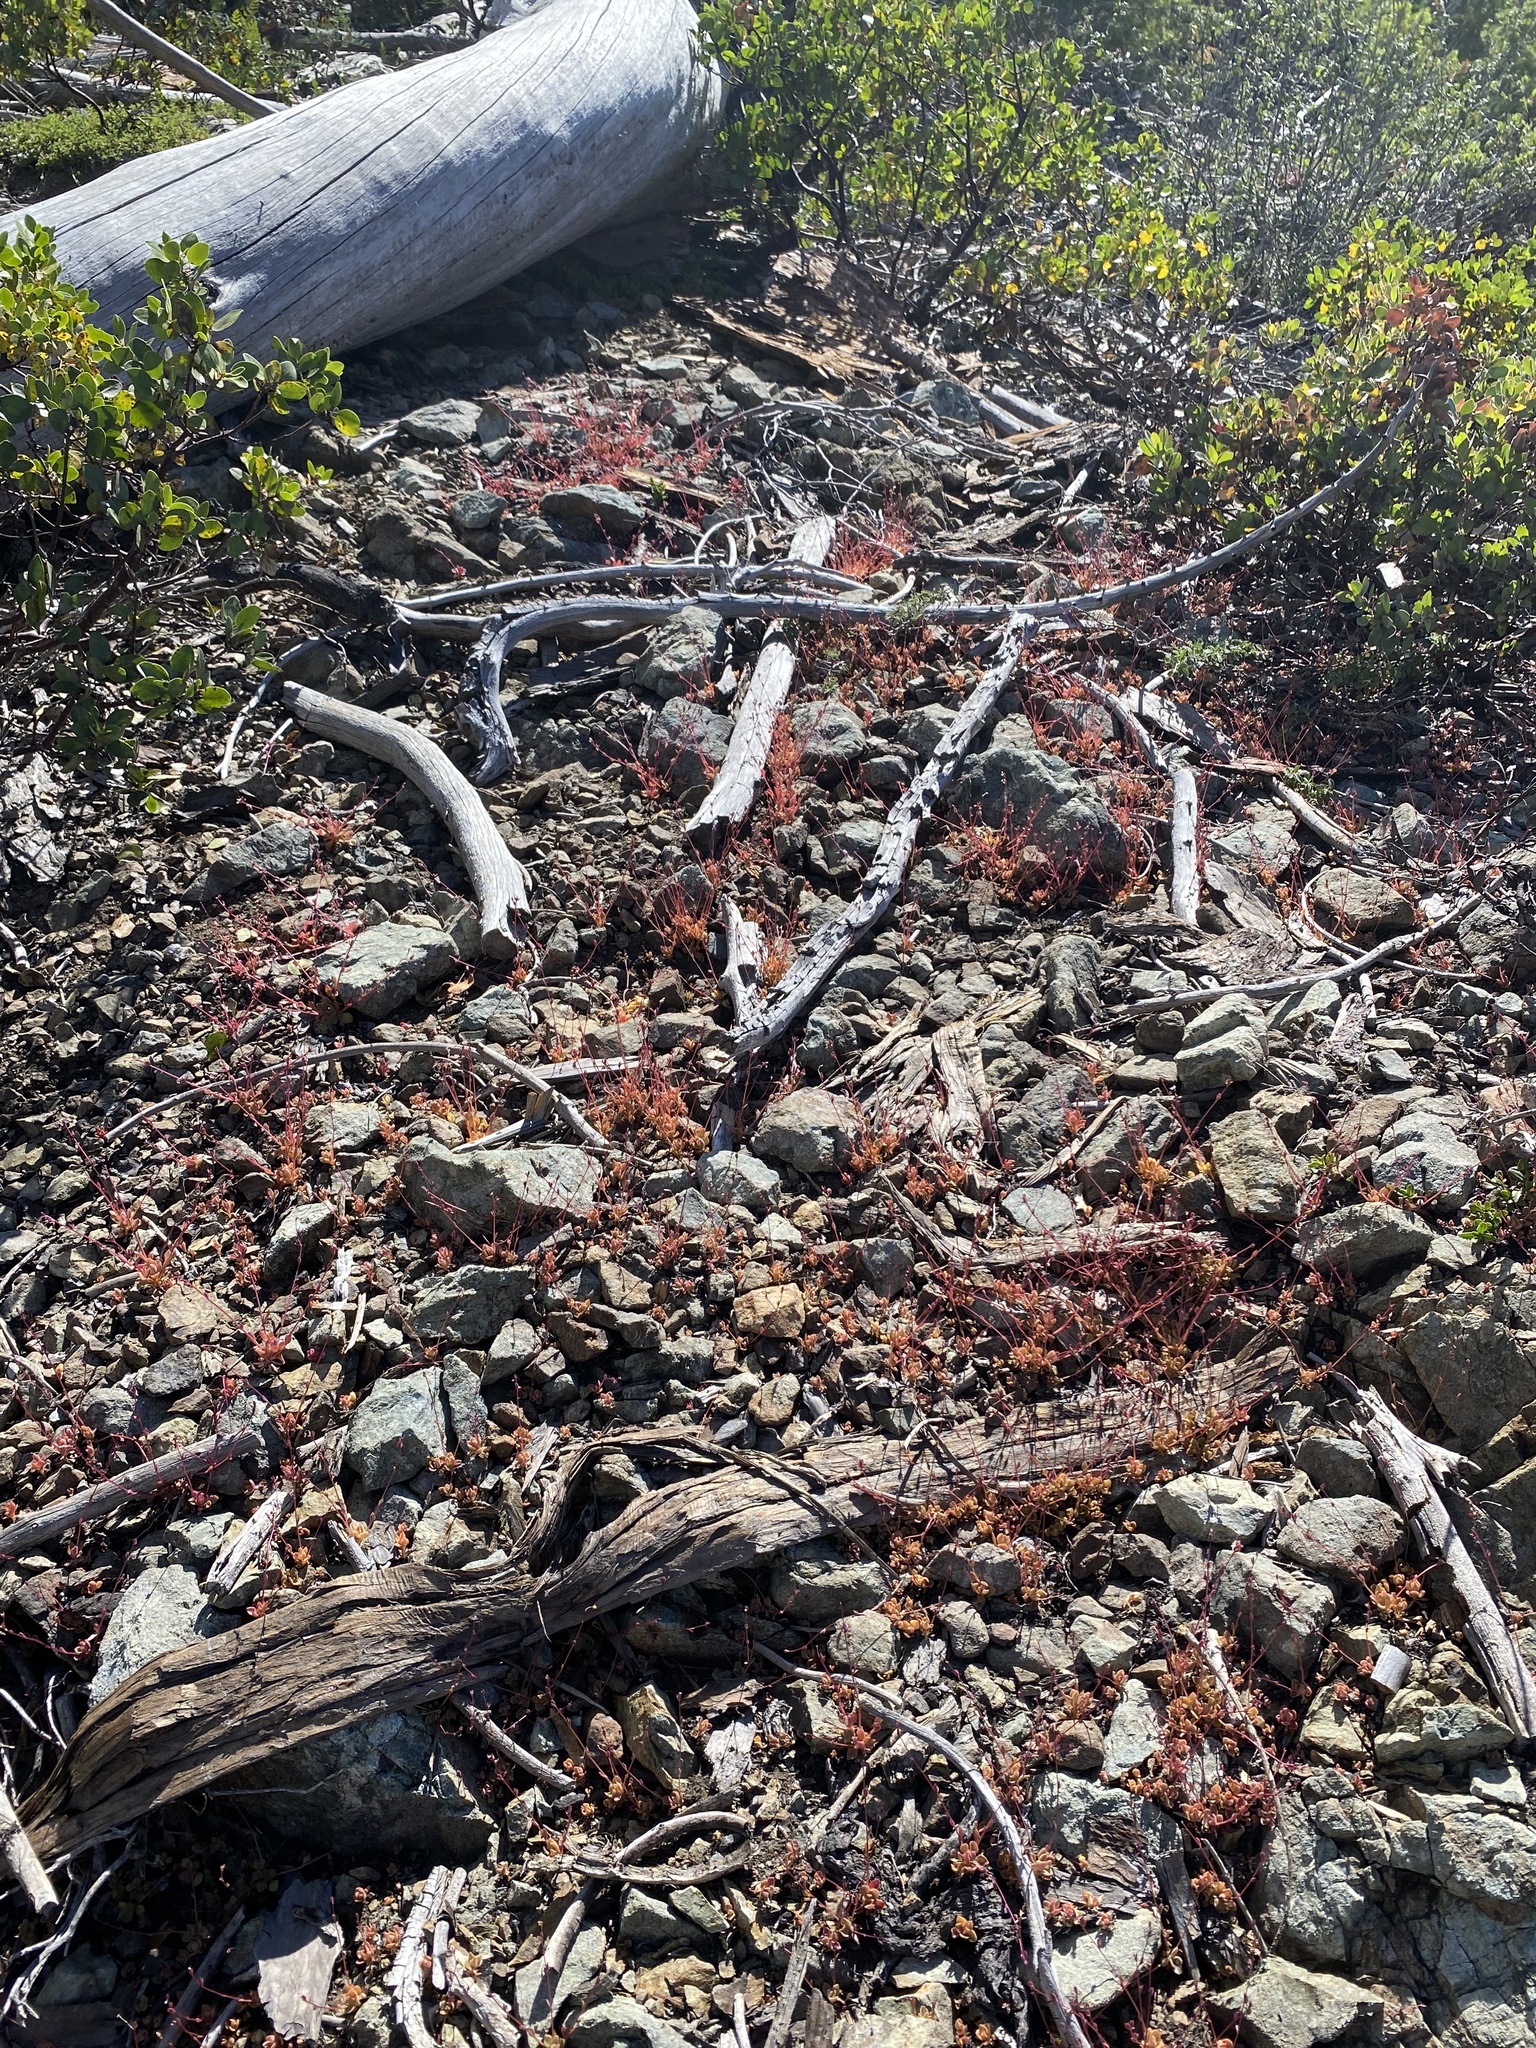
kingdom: Plantae
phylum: Tracheophyta
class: Magnoliopsida
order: Caryophyllales
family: Montiaceae
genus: Montia
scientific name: Montia parvifolia
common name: Small-leaved blinks
